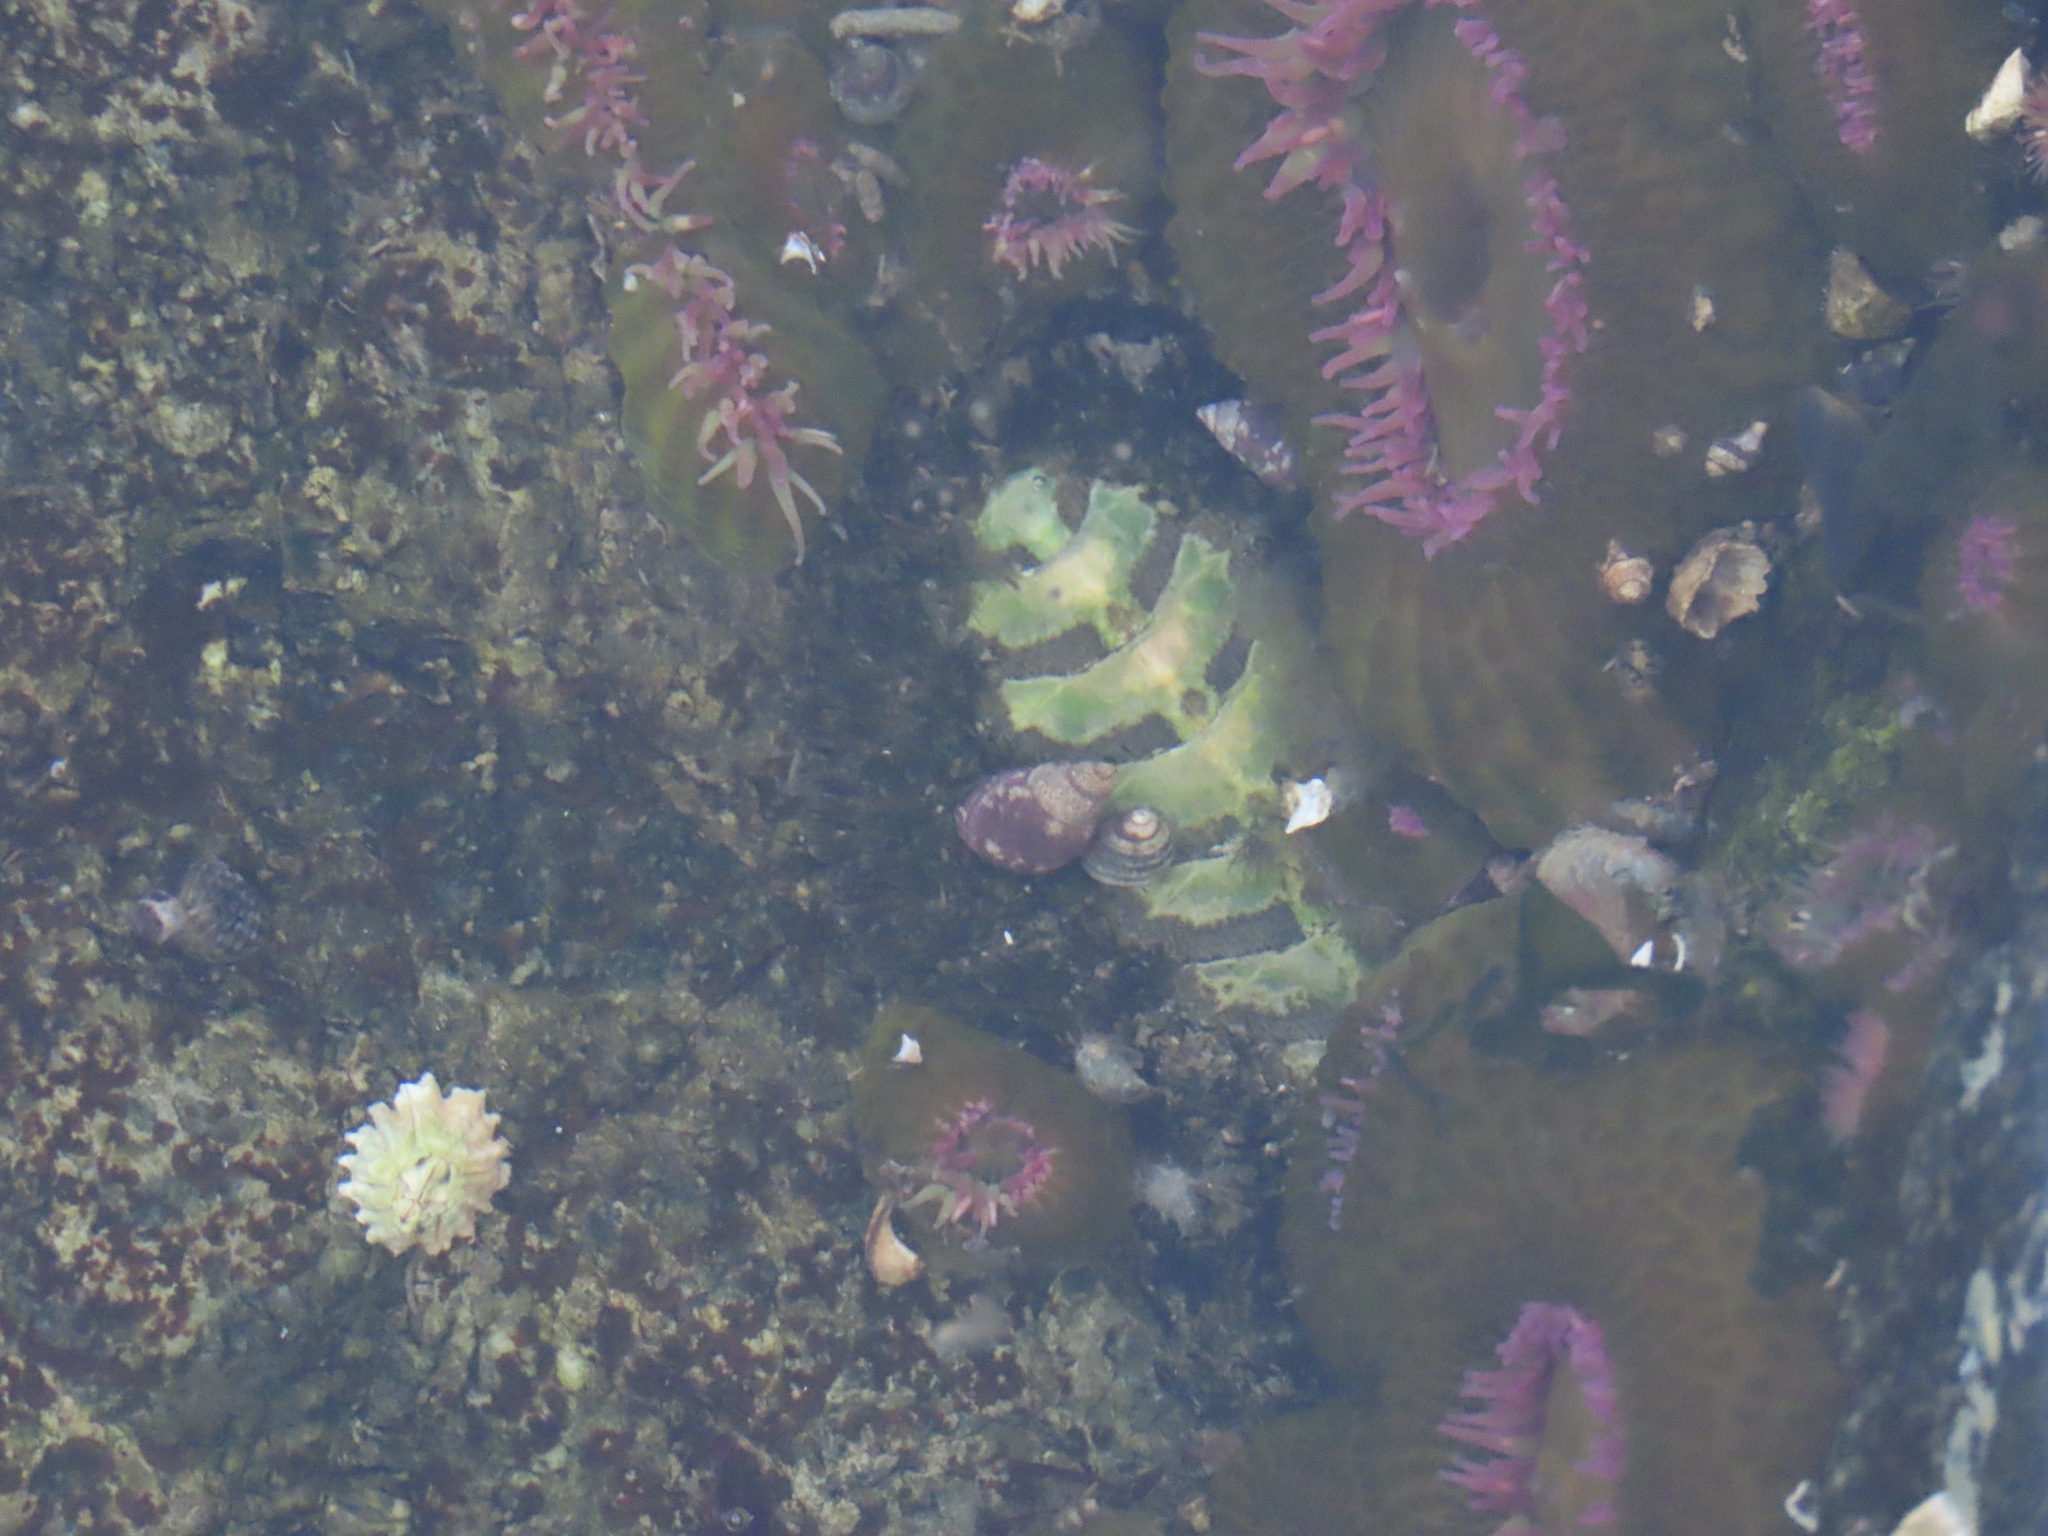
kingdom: Animalia
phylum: Mollusca
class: Polyplacophora
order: Chitonida
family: Mopaliidae
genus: Mopalia
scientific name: Mopalia muscosa
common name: Mossy chiton
